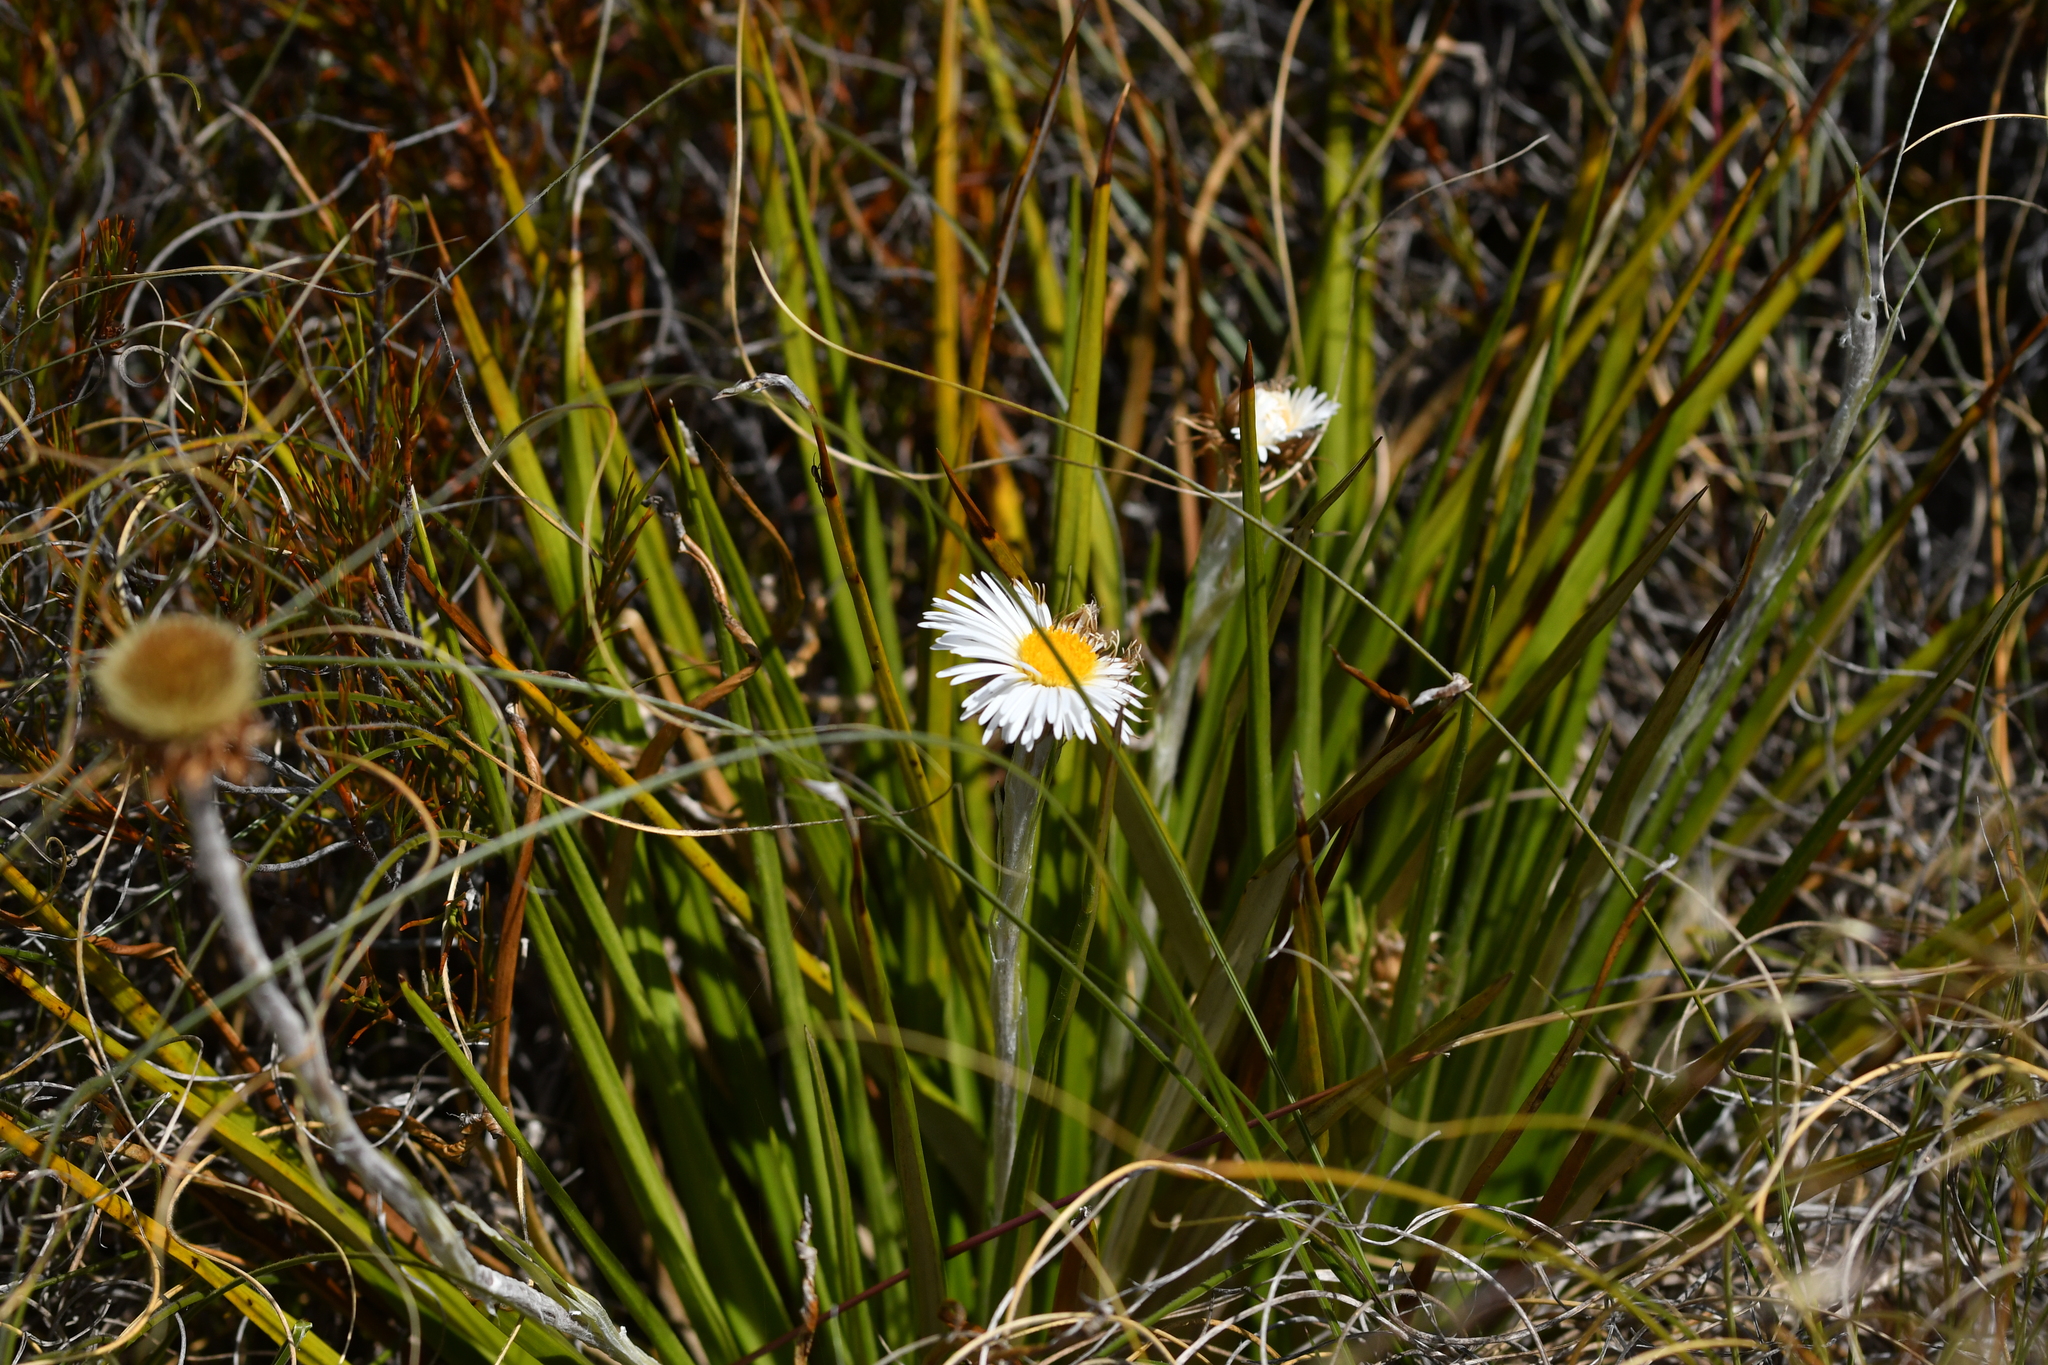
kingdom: Plantae
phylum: Tracheophyta
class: Magnoliopsida
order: Asterales
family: Asteraceae
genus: Celmisia
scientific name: Celmisia petriei
